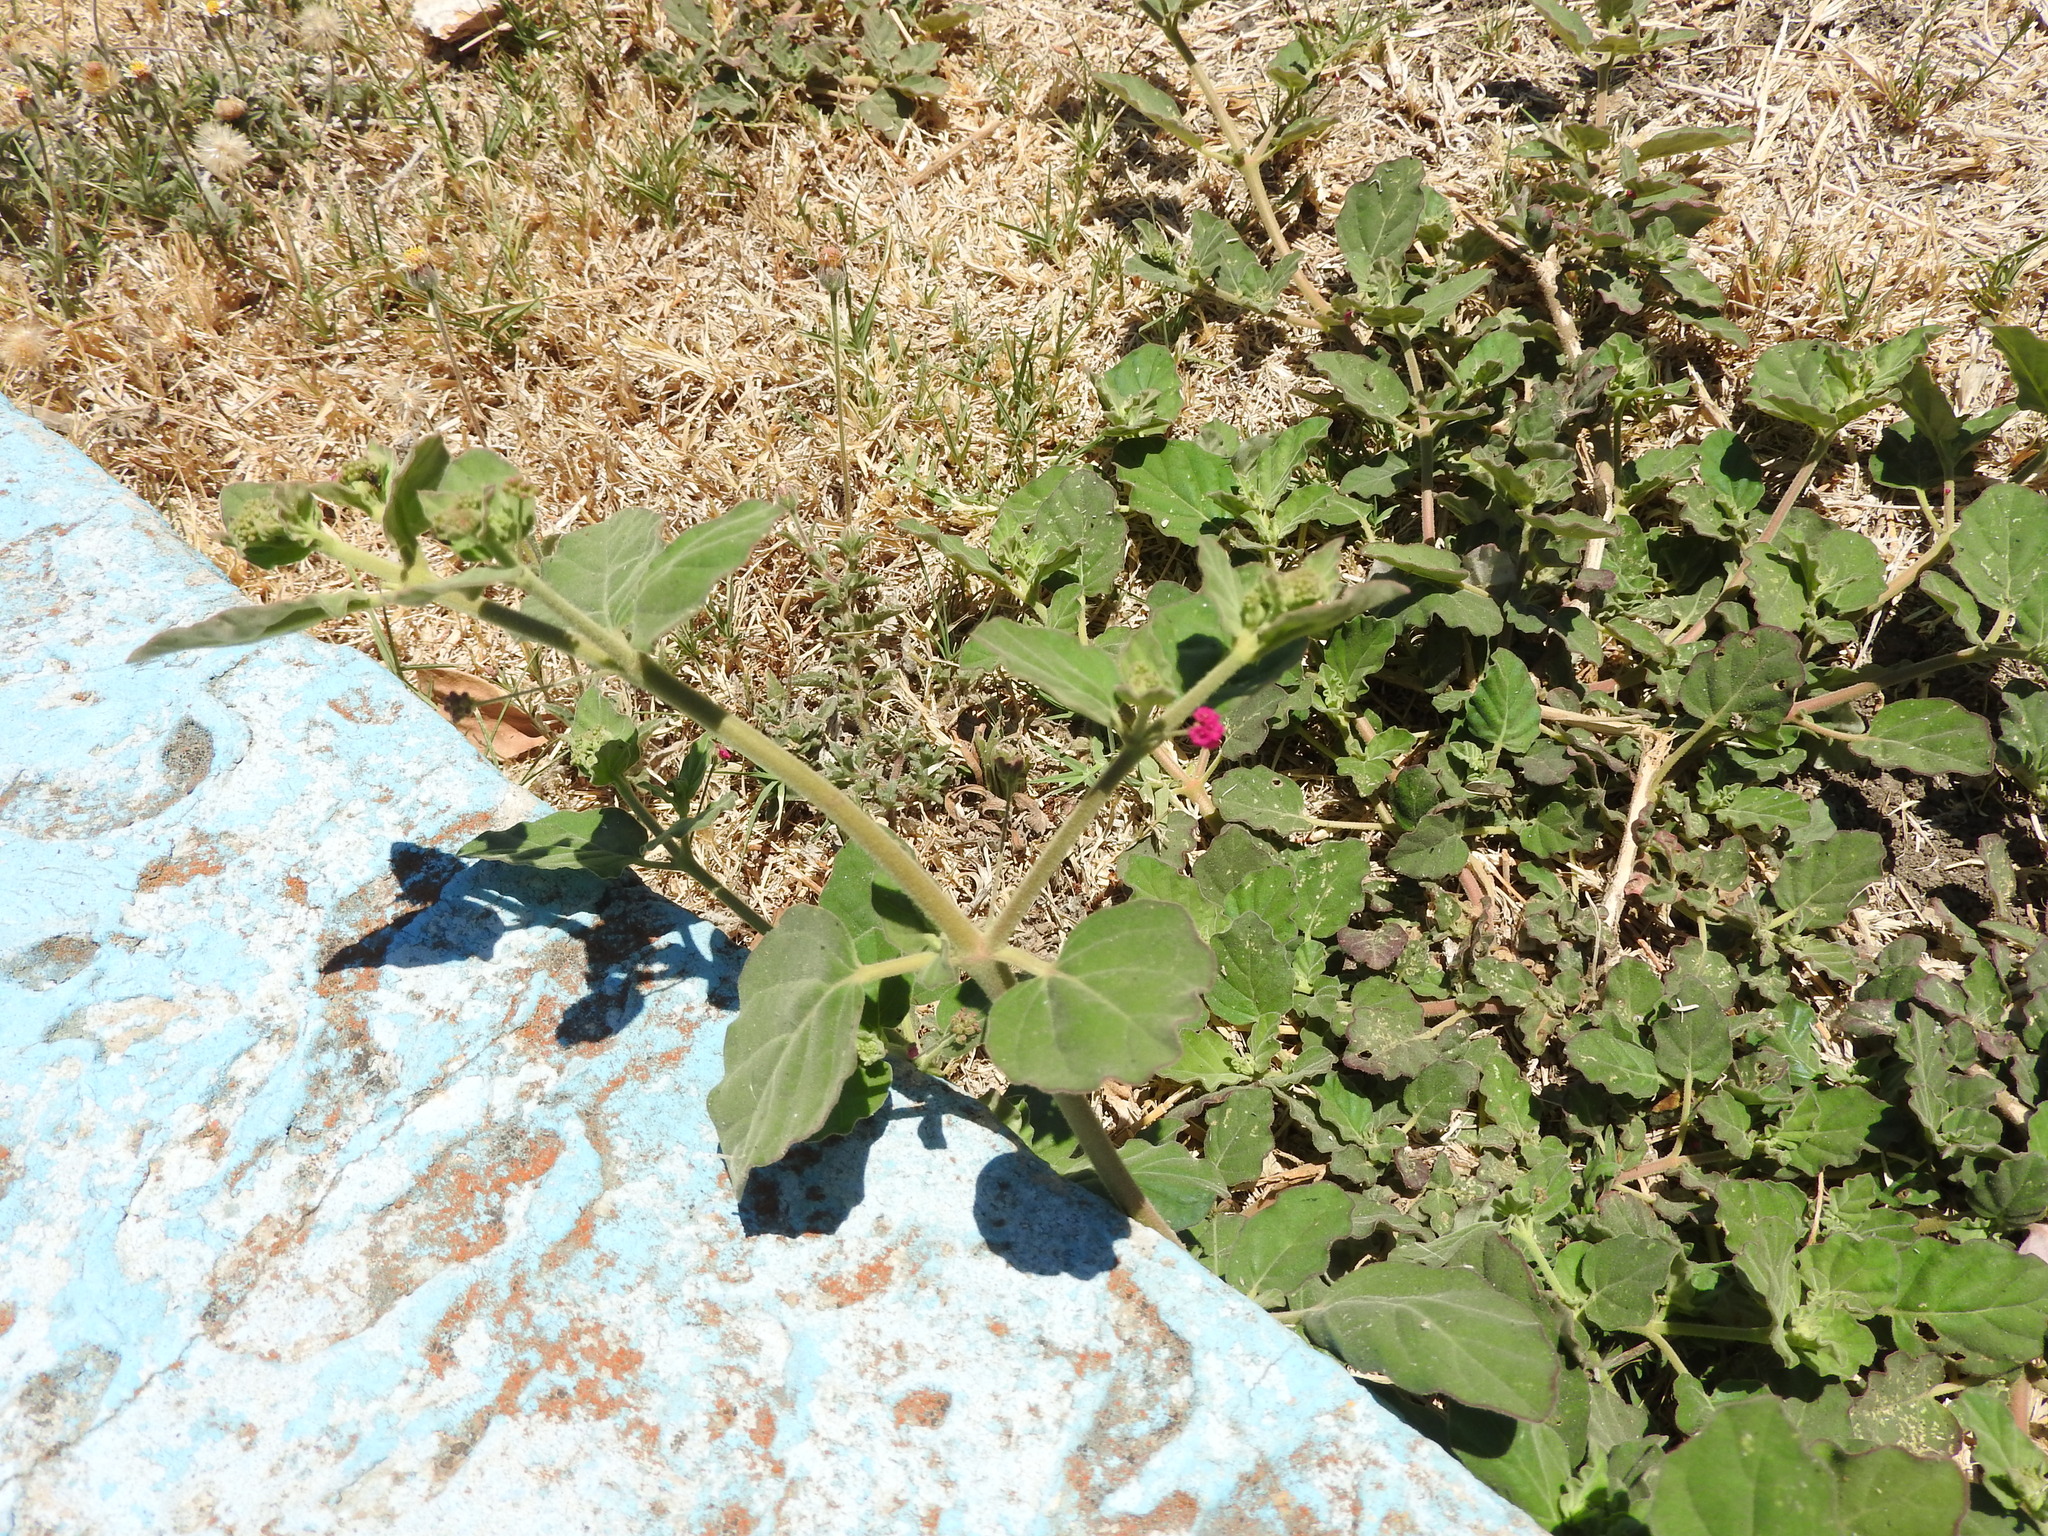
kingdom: Plantae
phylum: Tracheophyta
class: Magnoliopsida
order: Caryophyllales
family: Nyctaginaceae
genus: Boerhavia
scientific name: Boerhavia coccinea
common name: Scarlet spiderling
